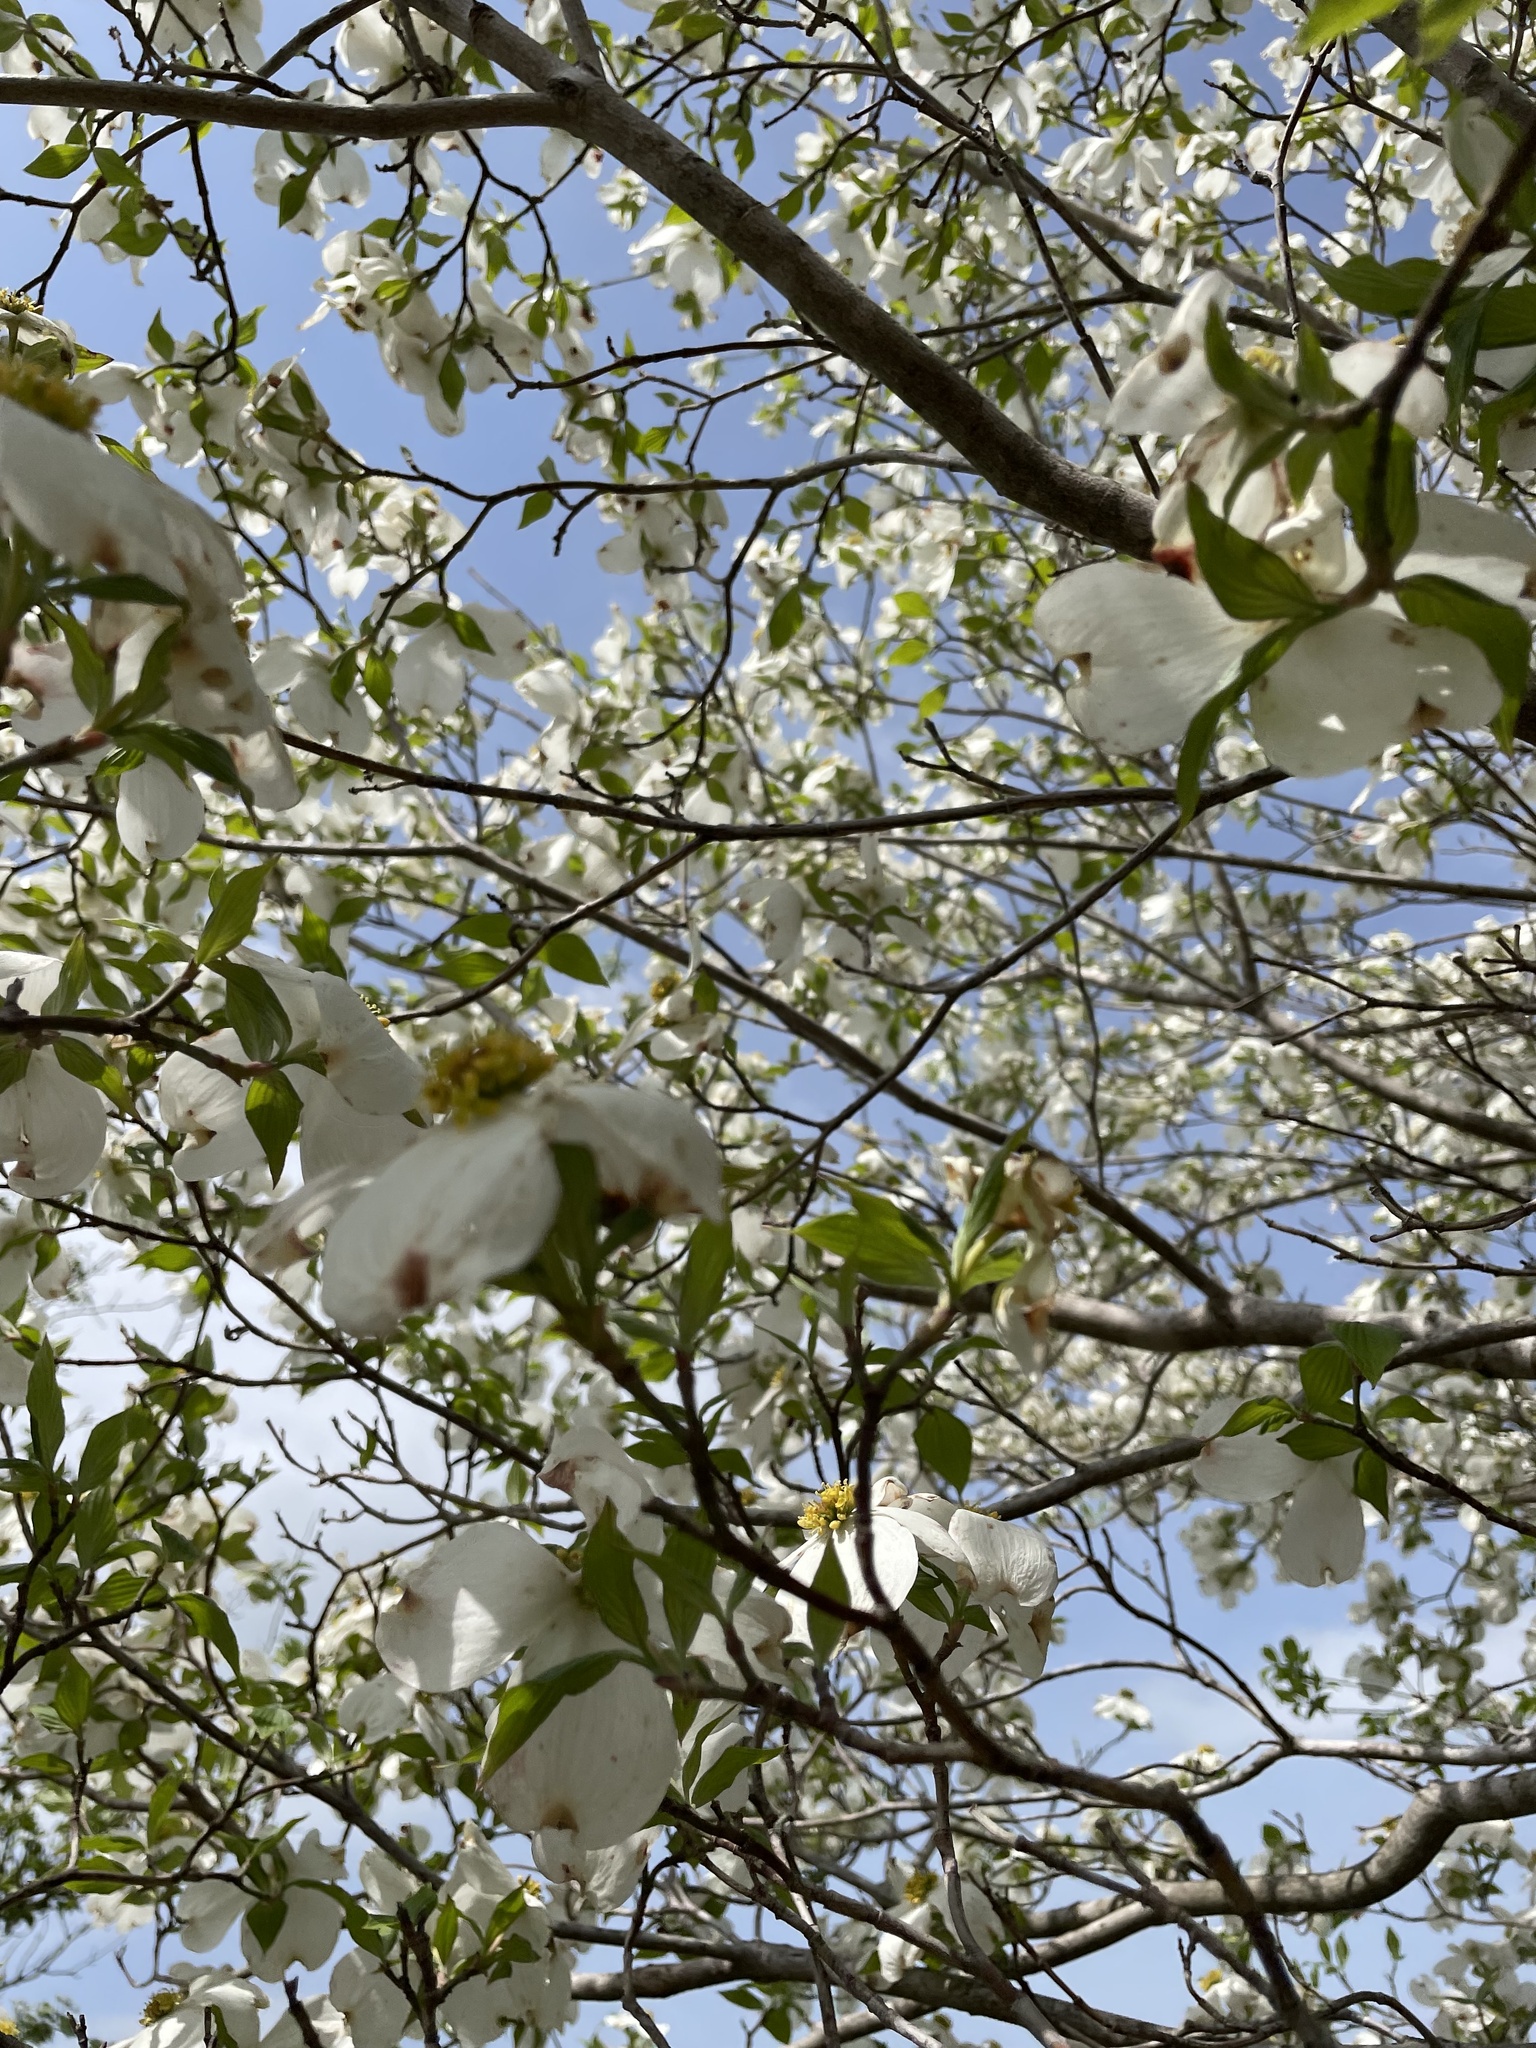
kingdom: Plantae
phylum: Tracheophyta
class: Magnoliopsida
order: Cornales
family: Cornaceae
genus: Cornus
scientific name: Cornus florida
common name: Flowering dogwood
